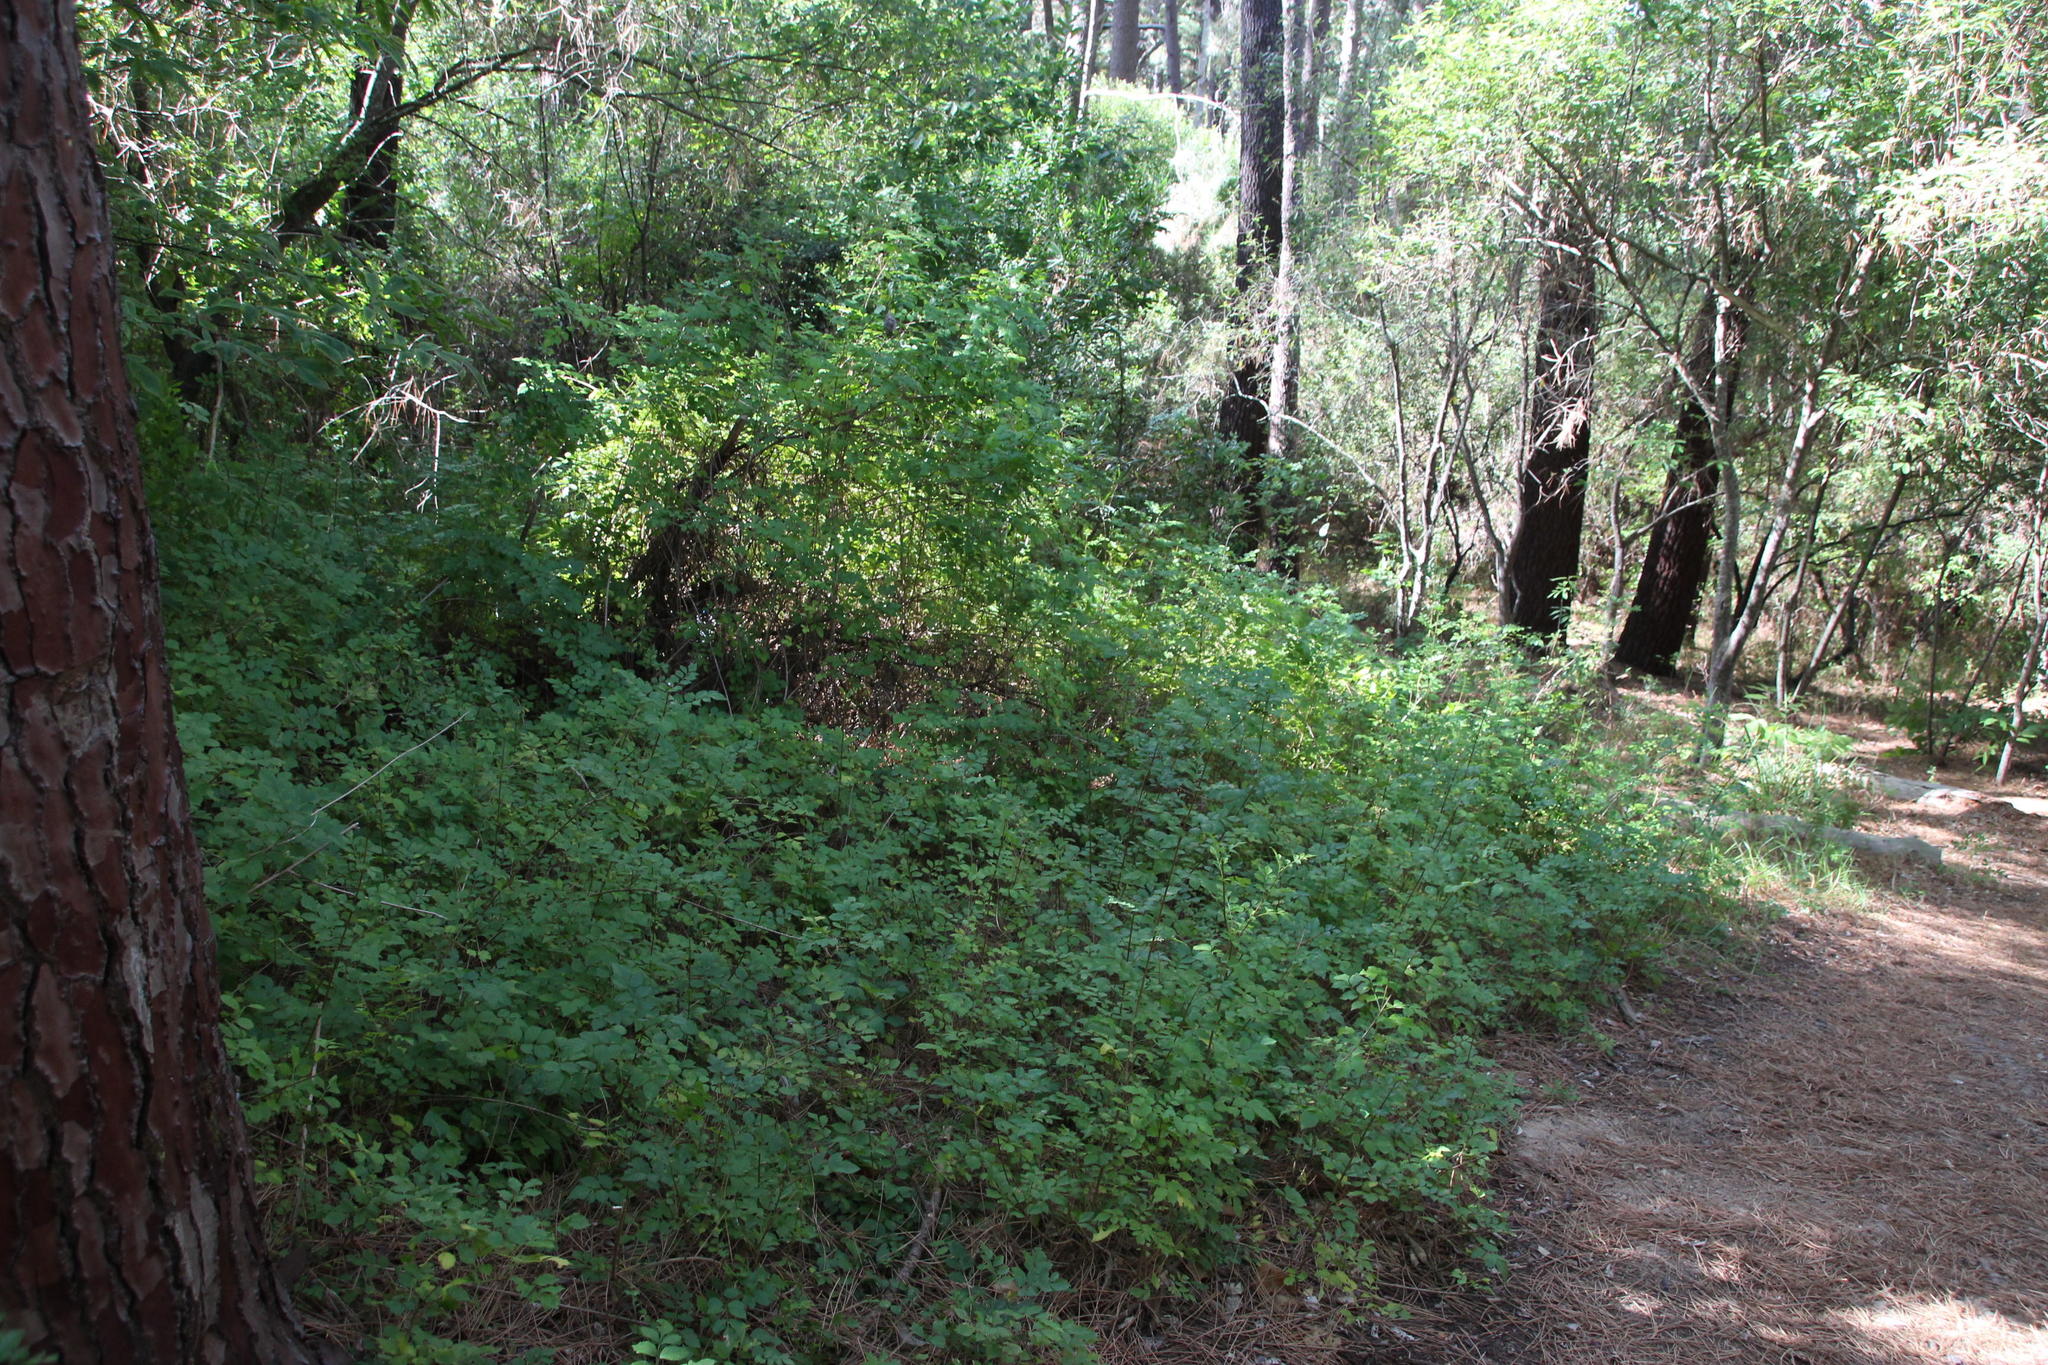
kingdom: Plantae
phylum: Tracheophyta
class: Magnoliopsida
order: Lamiales
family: Bignoniaceae
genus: Tecomaria
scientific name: Tecomaria capensis
